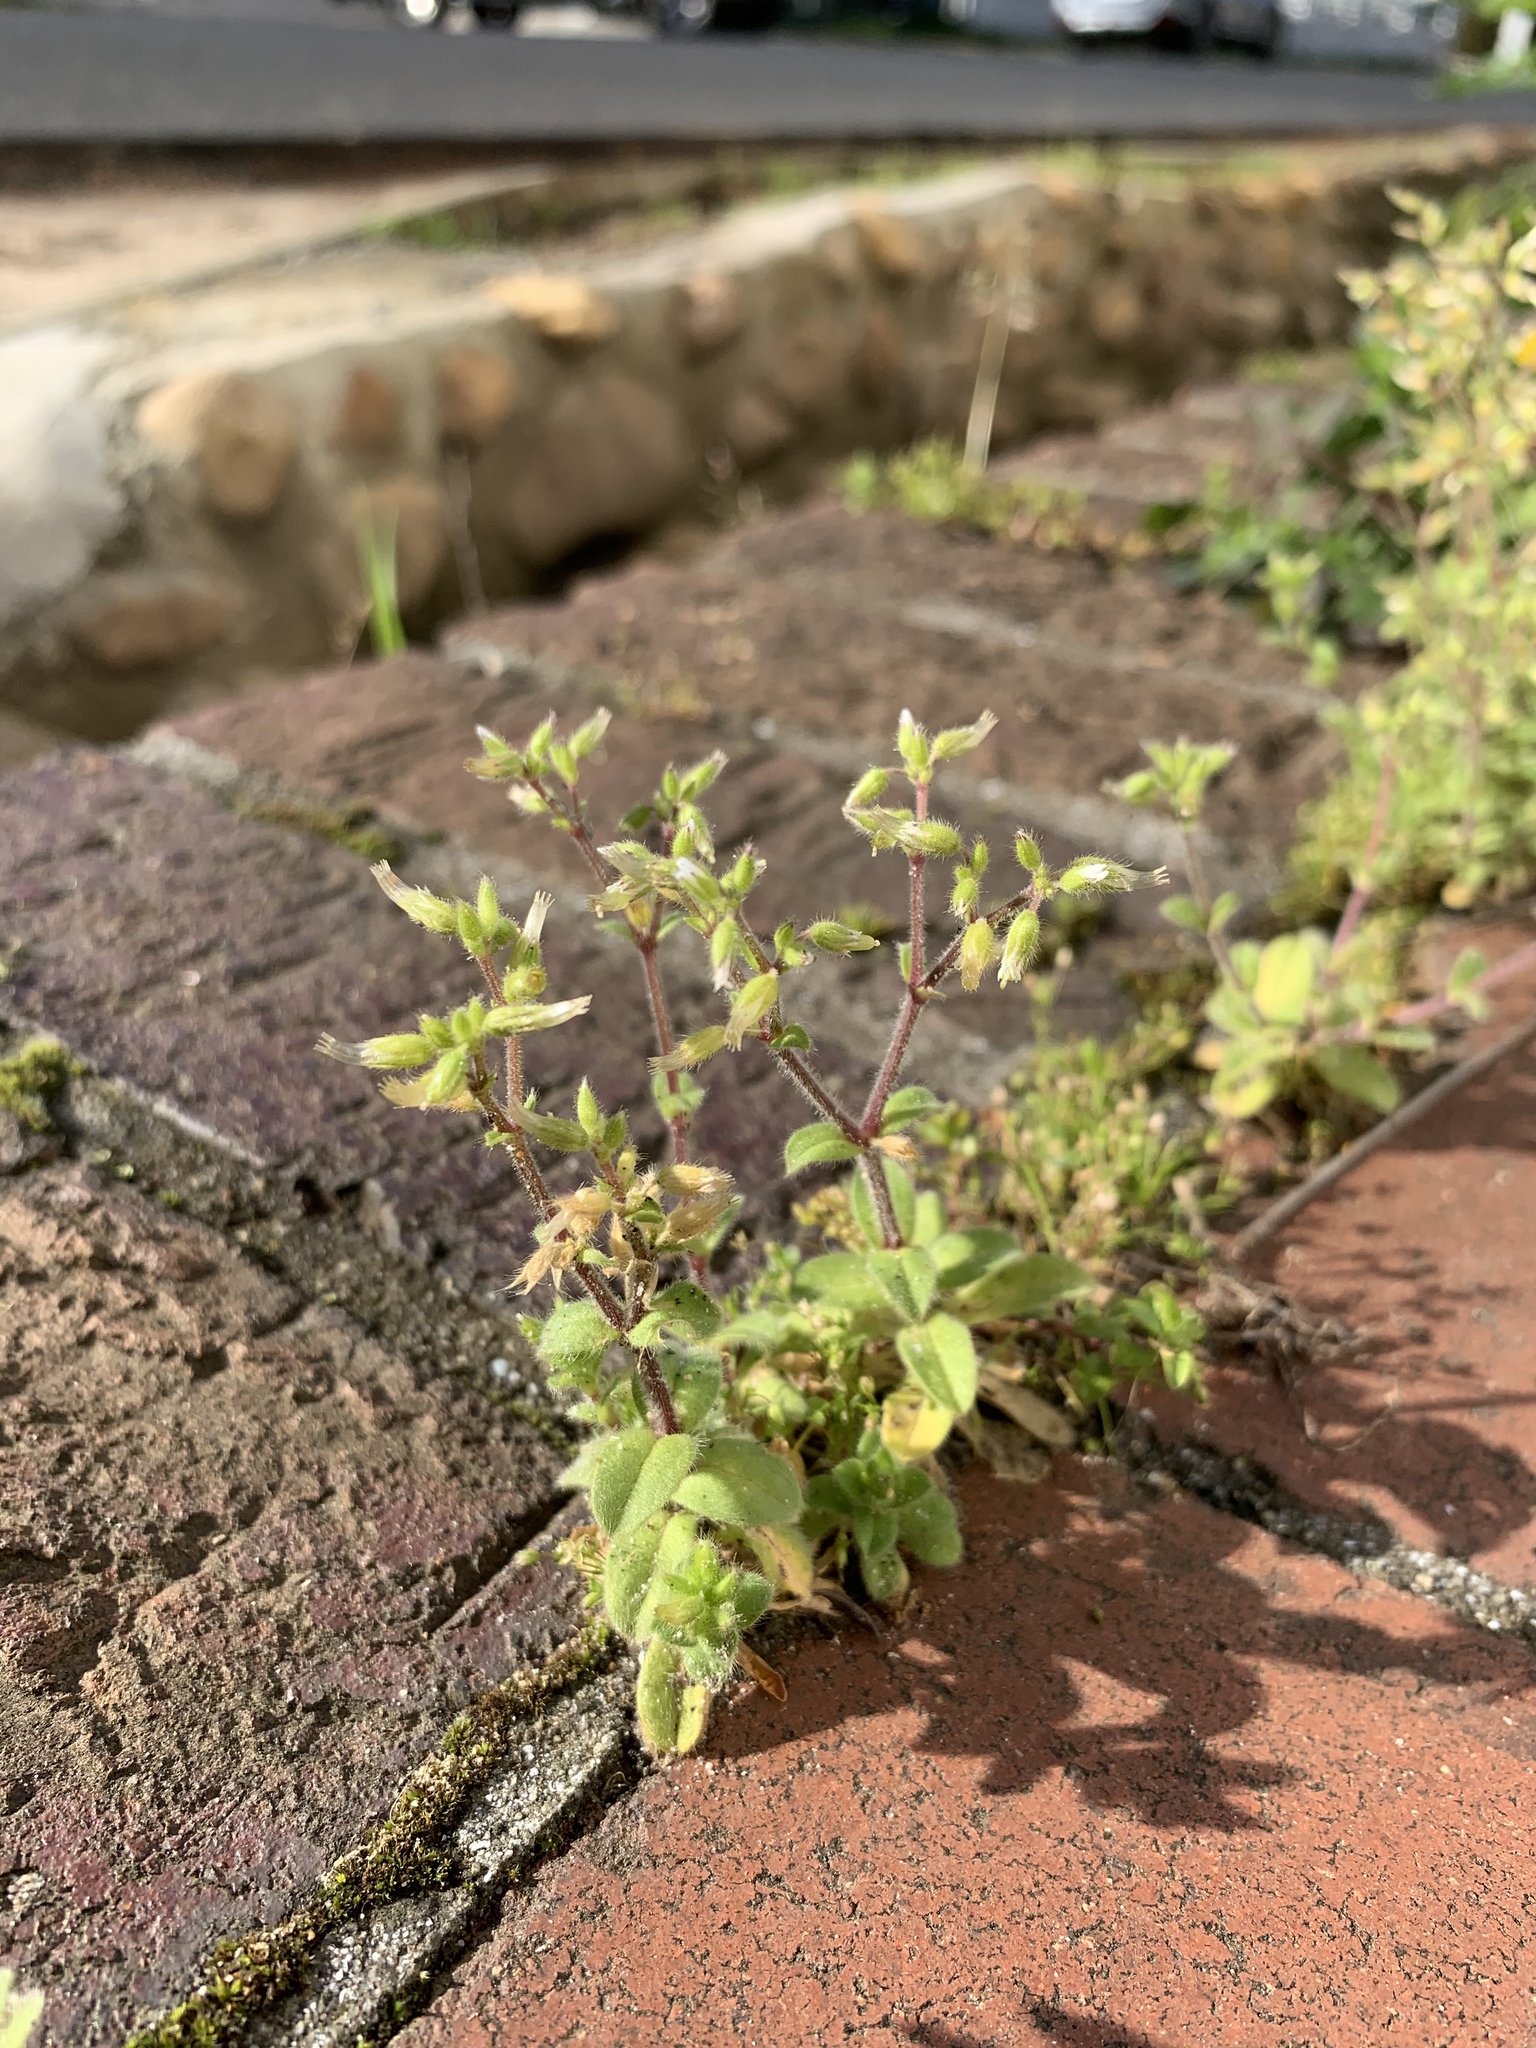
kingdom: Plantae
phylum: Tracheophyta
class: Magnoliopsida
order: Caryophyllales
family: Caryophyllaceae
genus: Cerastium
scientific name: Cerastium glomeratum
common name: Sticky chickweed
